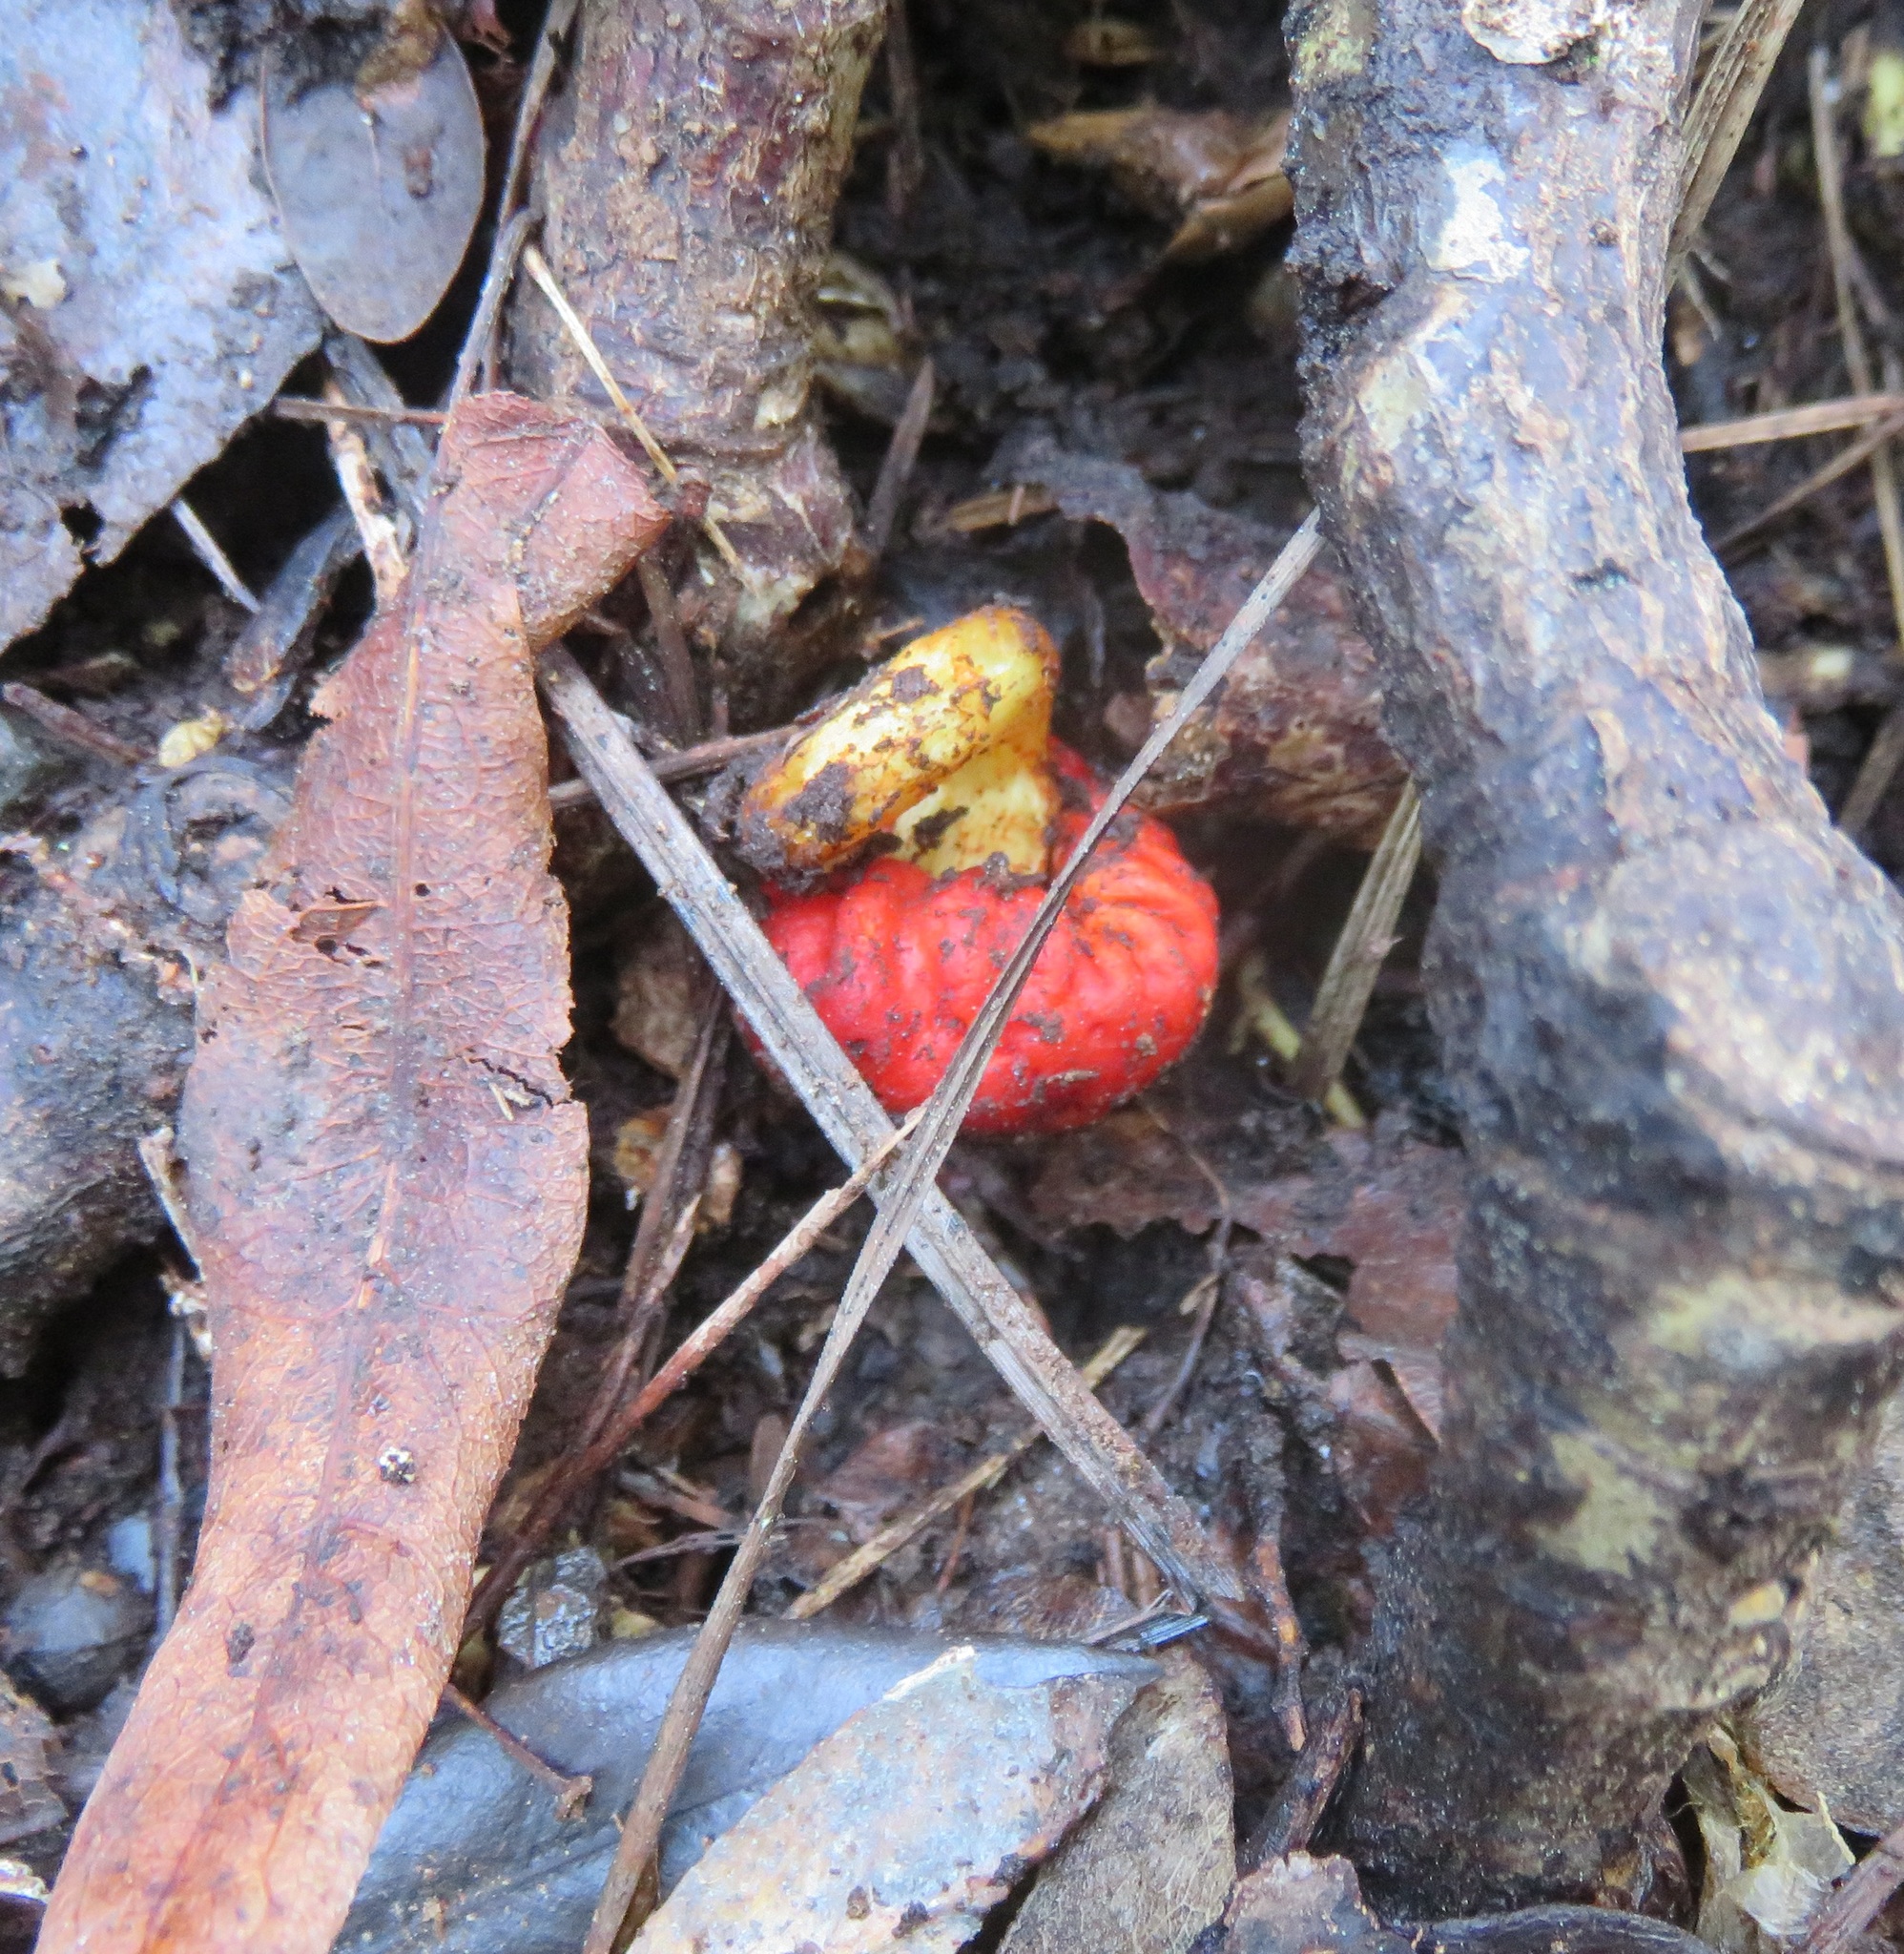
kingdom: Fungi
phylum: Basidiomycota
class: Agaricomycetes
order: Agaricales
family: Strophariaceae
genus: Leratiomyces
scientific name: Leratiomyces erythrocephalus
